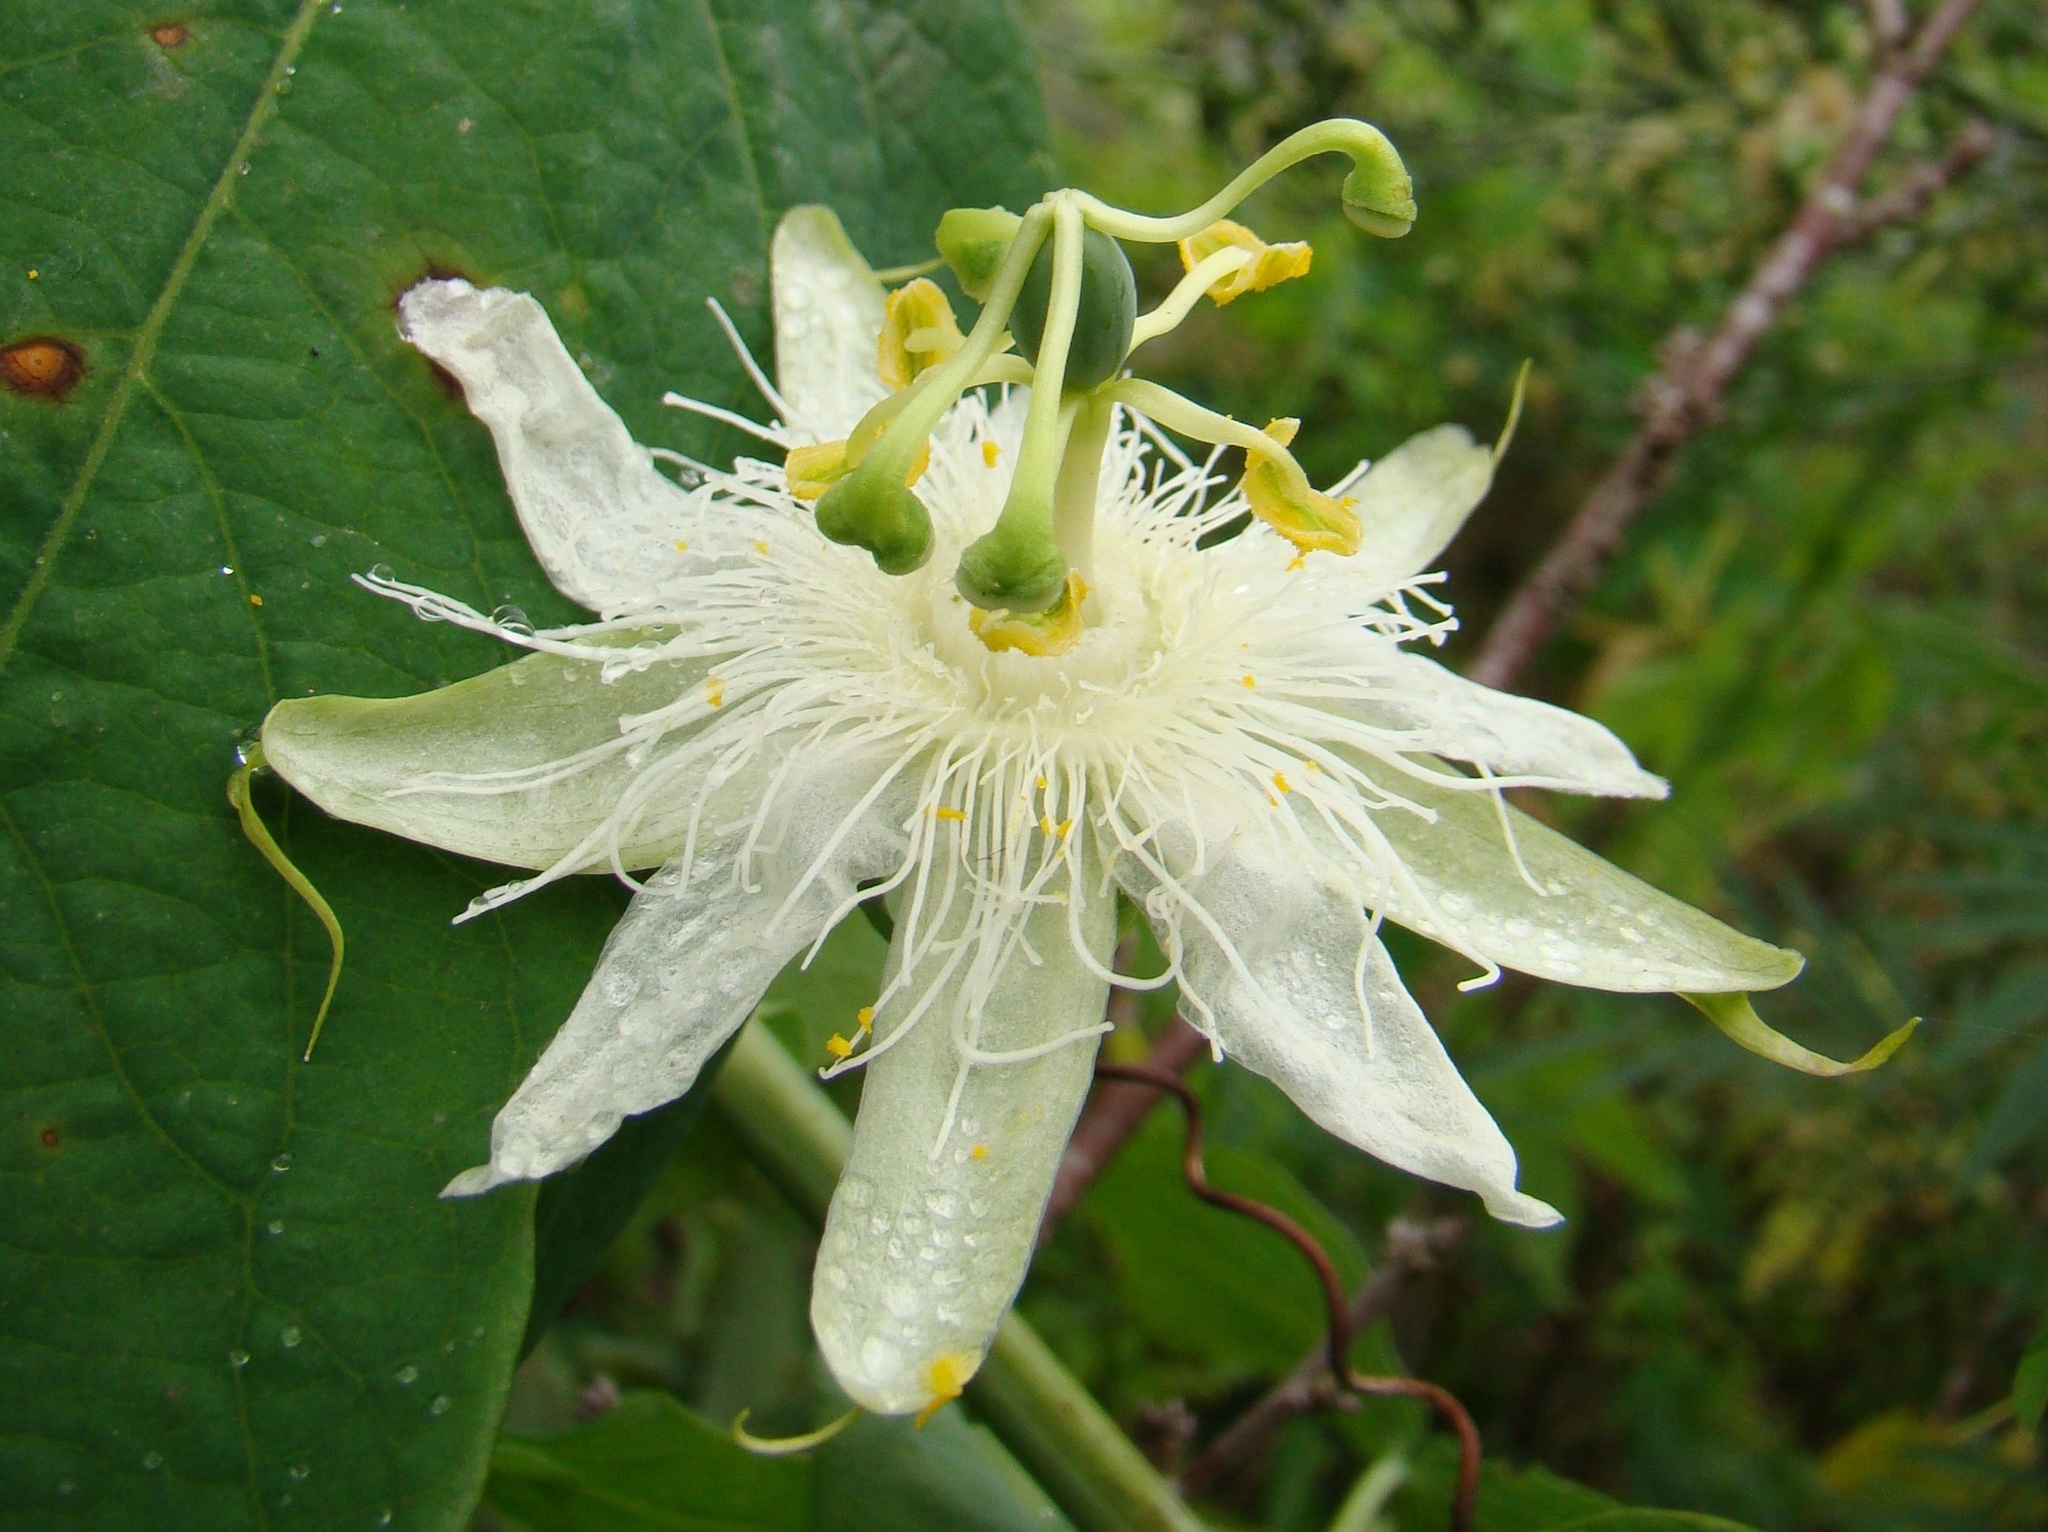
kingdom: Plantae
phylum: Tracheophyta
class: Magnoliopsida
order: Malpighiales
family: Passifloraceae
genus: Passiflora
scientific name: Passiflora subpeltata
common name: White passionflower
